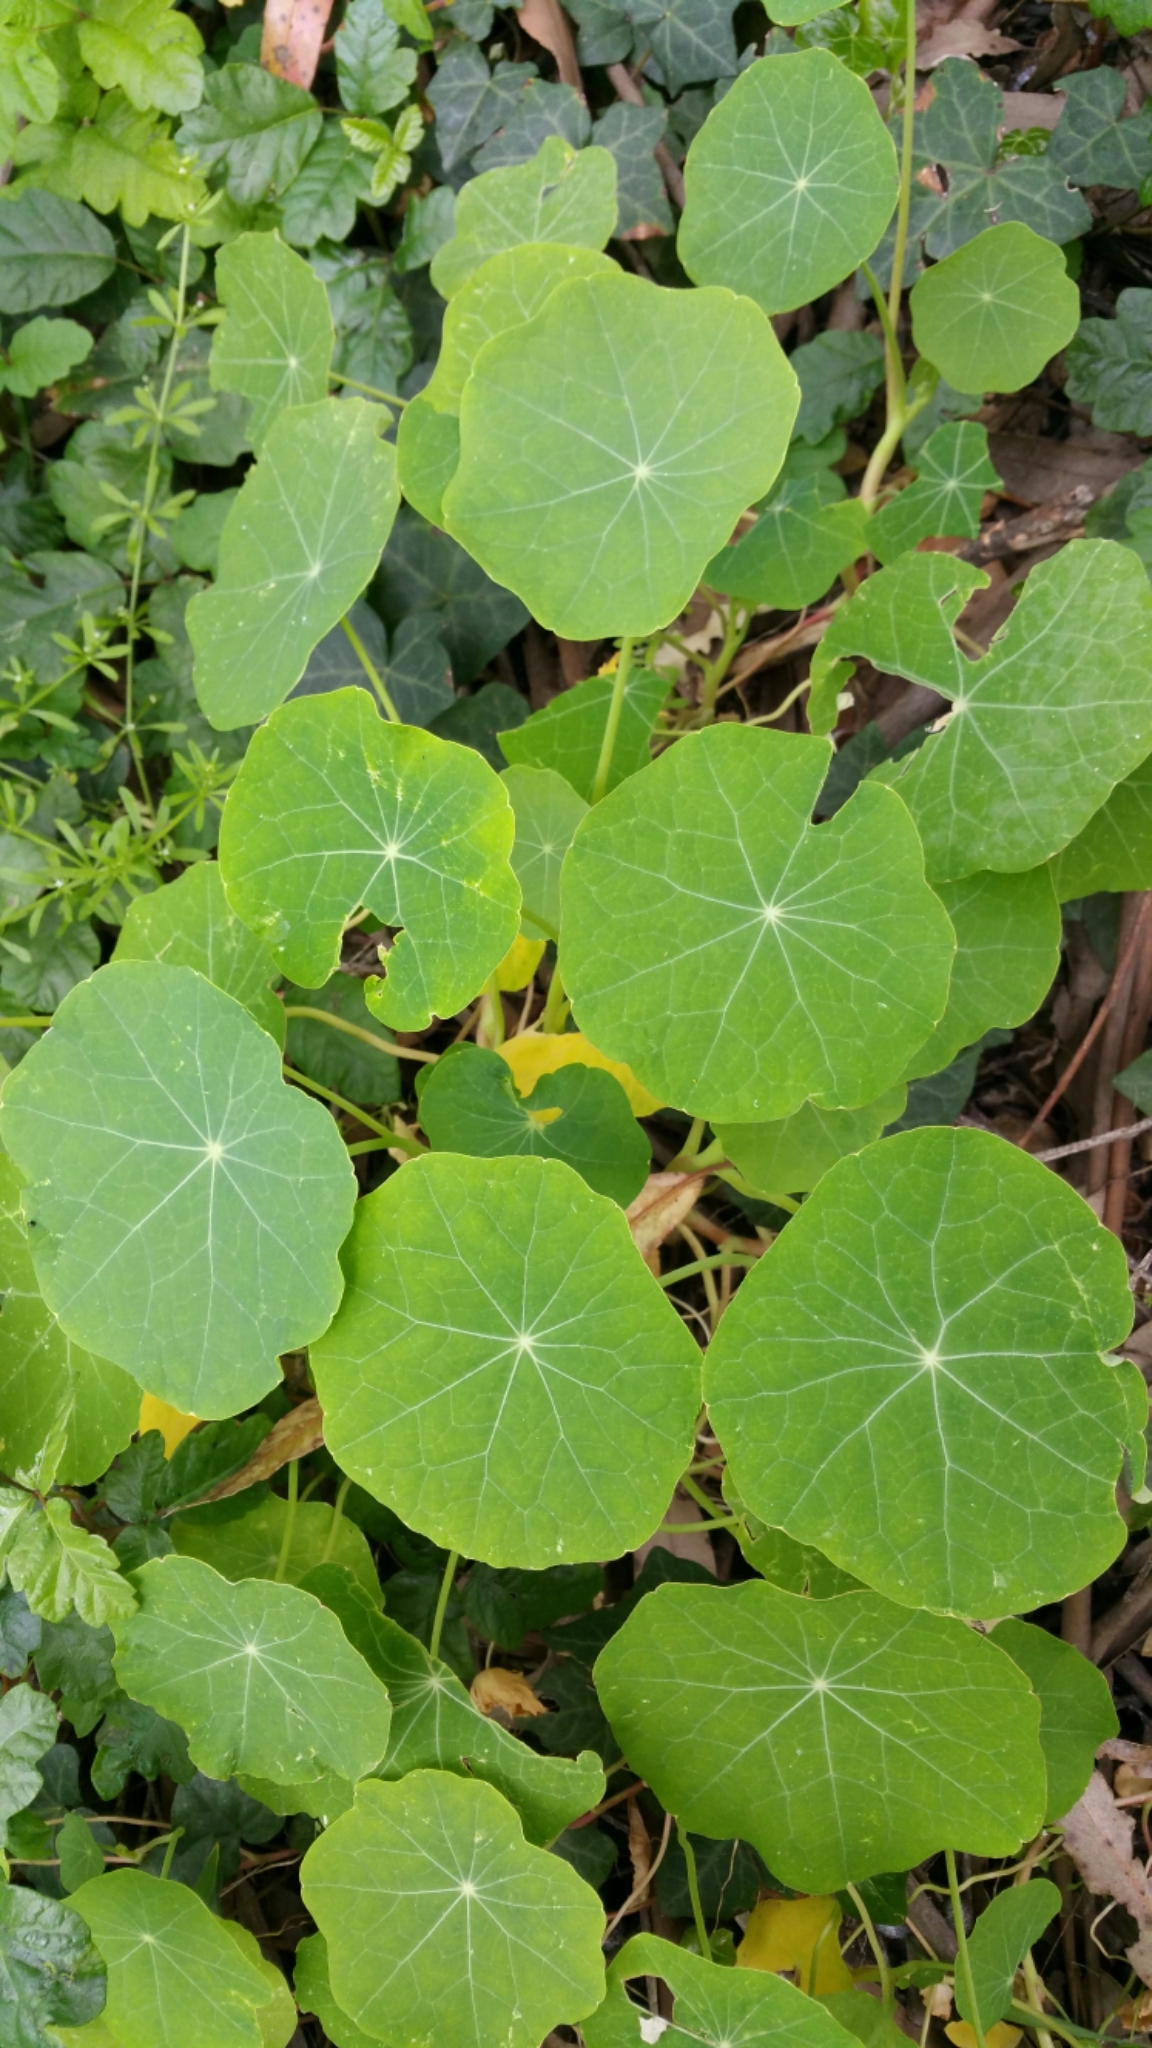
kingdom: Plantae
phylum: Tracheophyta
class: Magnoliopsida
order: Brassicales
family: Tropaeolaceae
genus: Tropaeolum
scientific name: Tropaeolum majus
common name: Nasturtium
